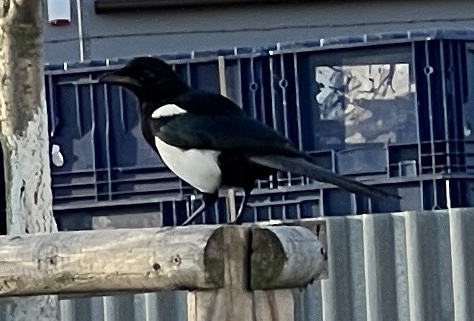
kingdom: Animalia
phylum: Chordata
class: Aves
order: Passeriformes
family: Corvidae
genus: Pica
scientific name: Pica pica
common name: Eurasian magpie
